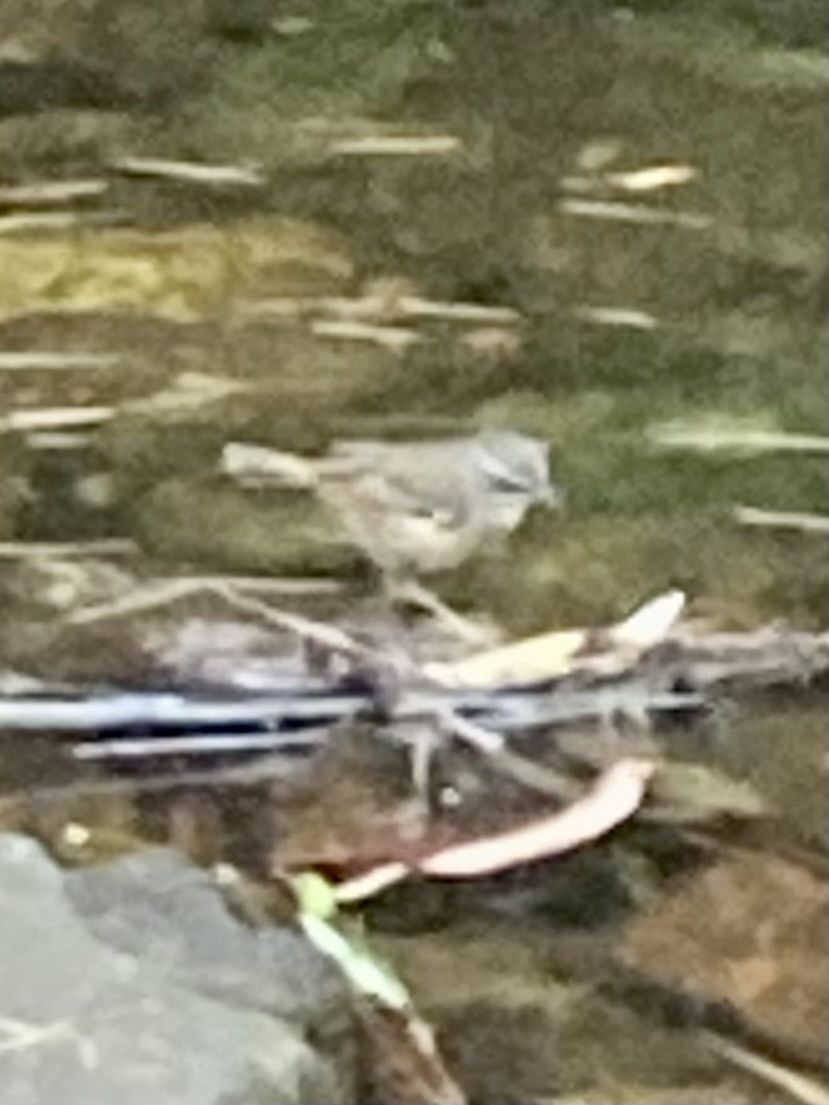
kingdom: Animalia
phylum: Chordata
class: Aves
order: Passeriformes
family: Acanthizidae
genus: Sericornis
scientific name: Sericornis frontalis
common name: White-browed scrubwren
